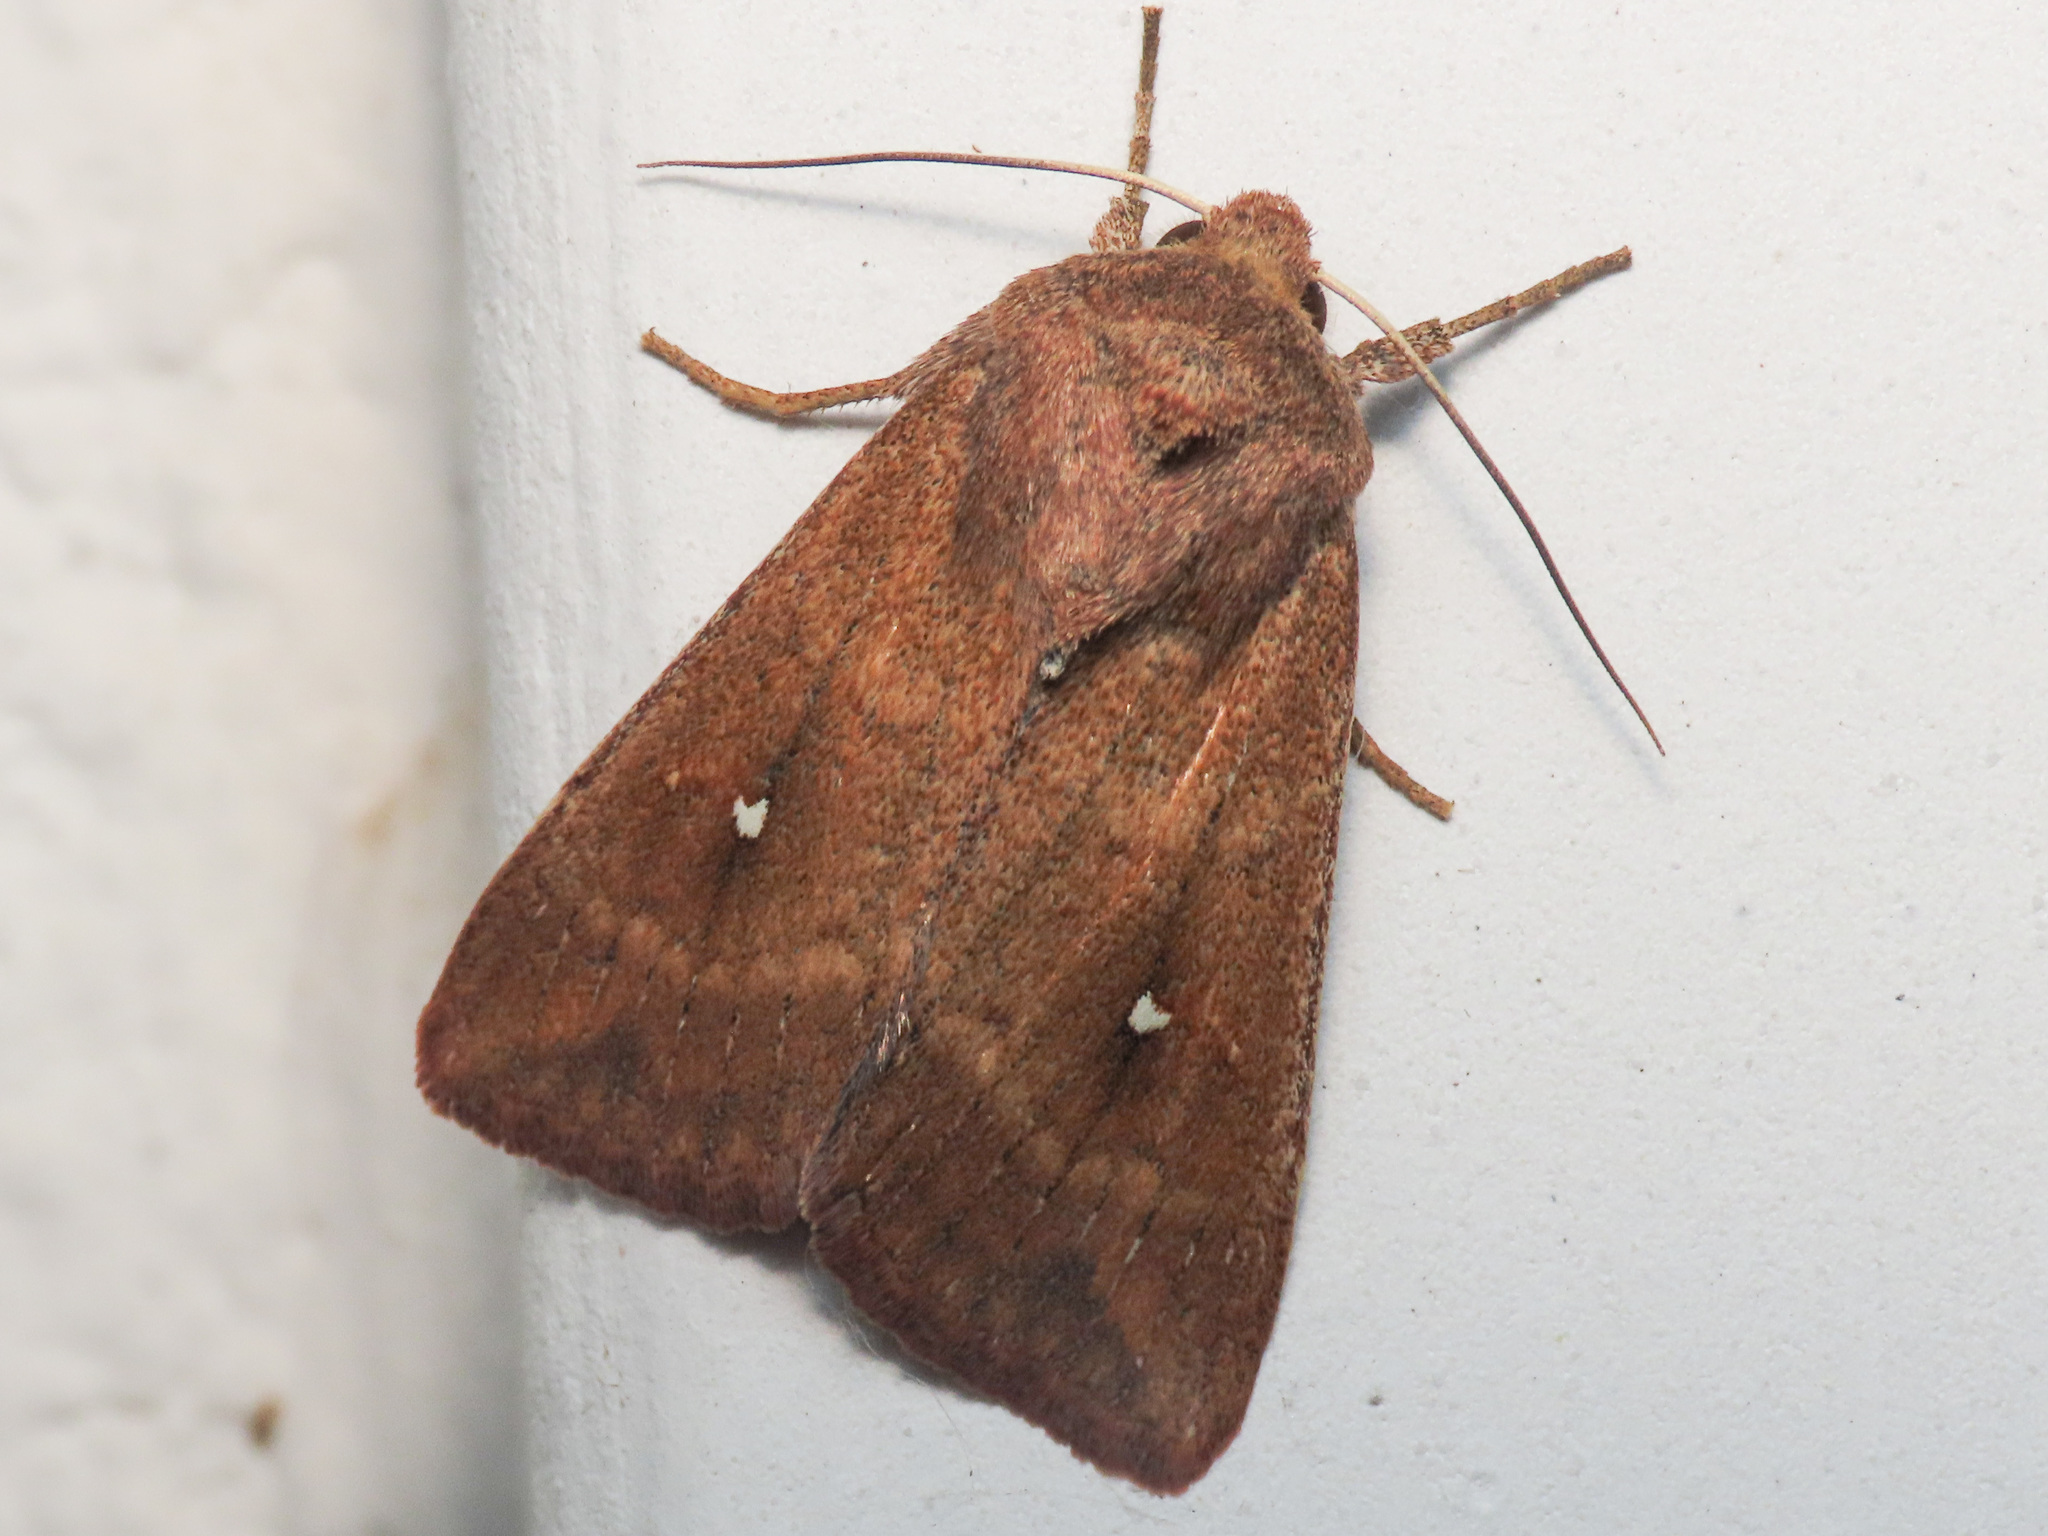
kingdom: Animalia
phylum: Arthropoda
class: Insecta
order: Lepidoptera
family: Noctuidae
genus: Mythimna
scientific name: Mythimna albipuncta
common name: White-point
